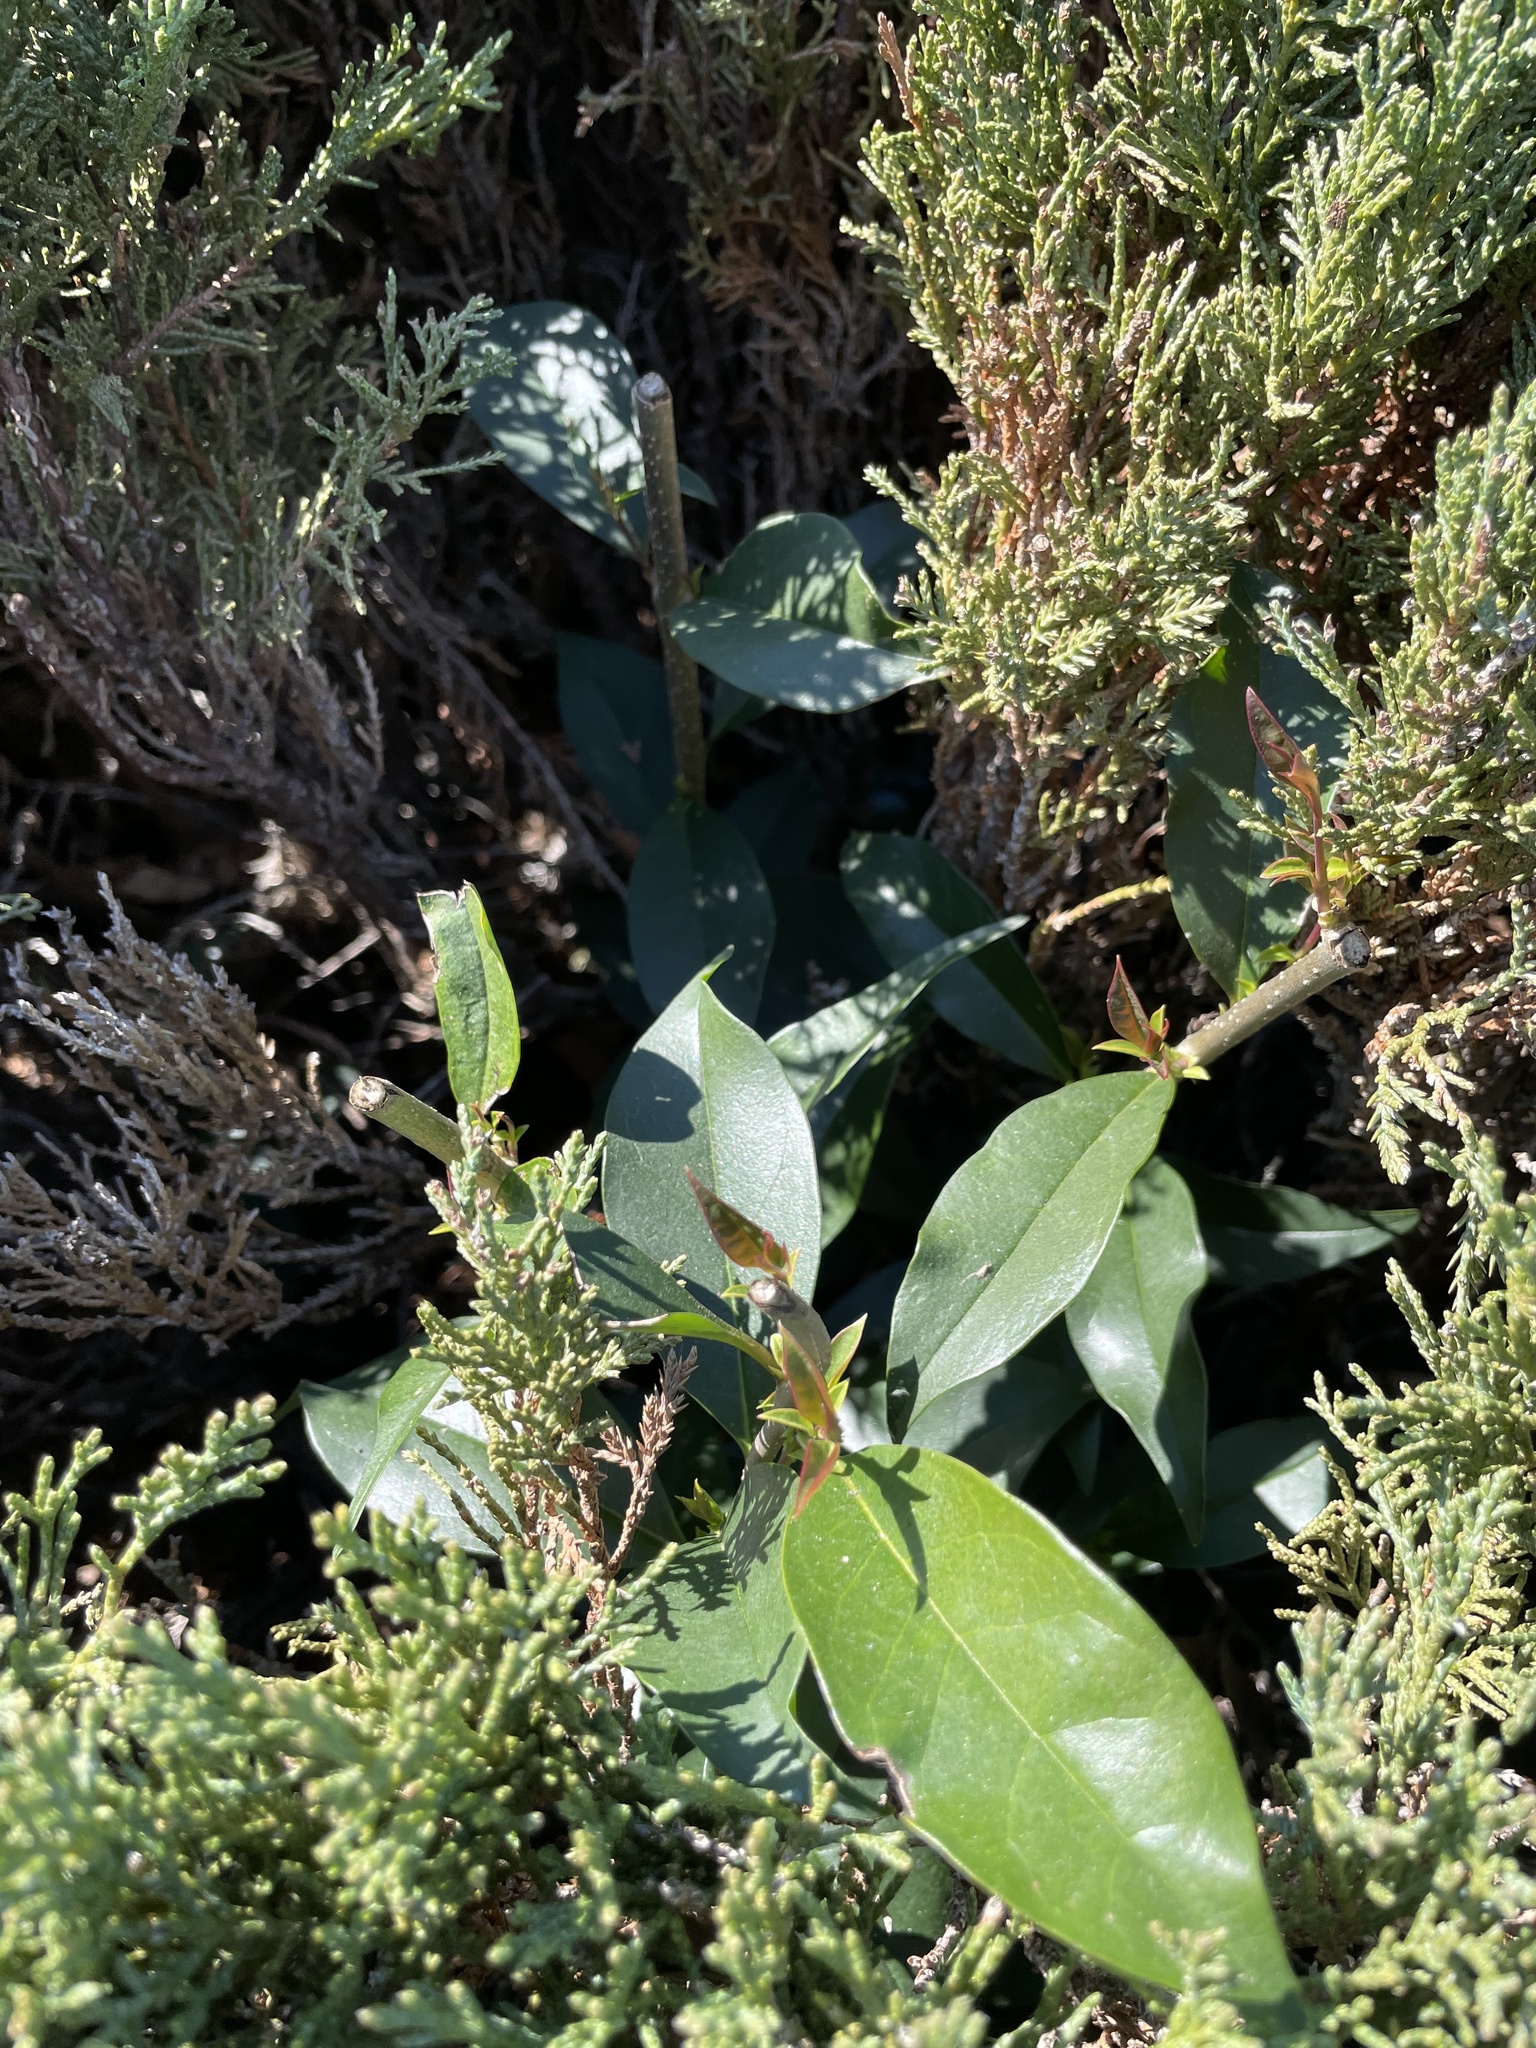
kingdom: Plantae
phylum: Tracheophyta
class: Magnoliopsida
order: Lamiales
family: Oleaceae
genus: Ligustrum
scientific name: Ligustrum lucidum
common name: Glossy privet
